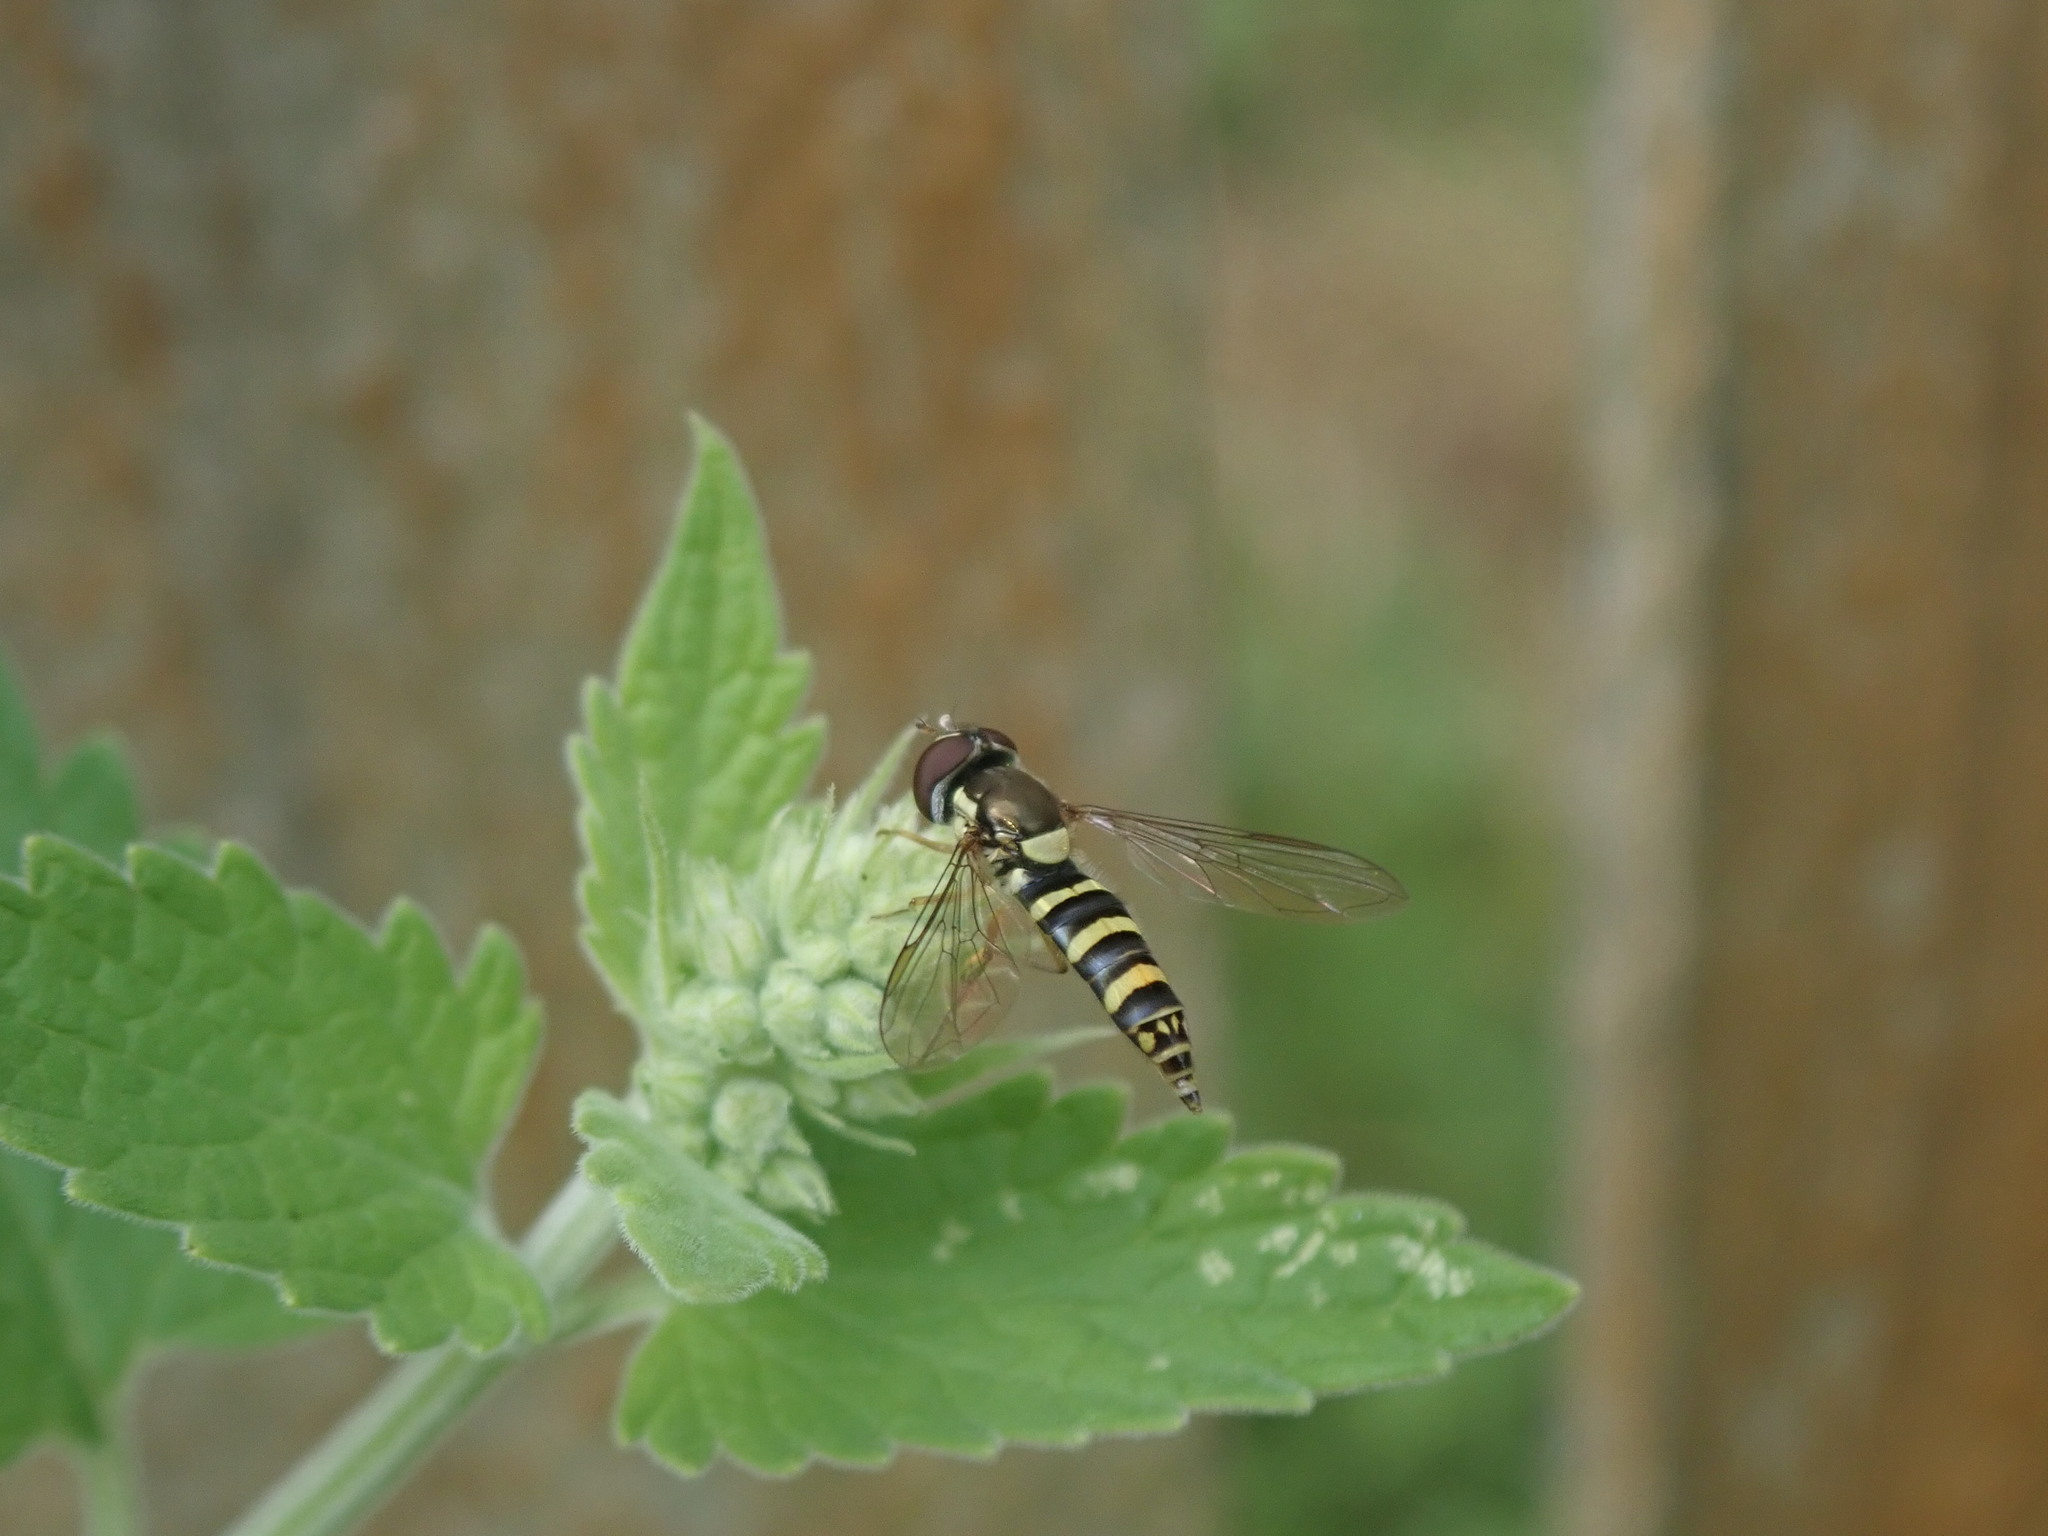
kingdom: Animalia
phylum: Arthropoda
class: Insecta
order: Diptera
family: Syrphidae
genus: Fazia
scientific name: Fazia micrura
